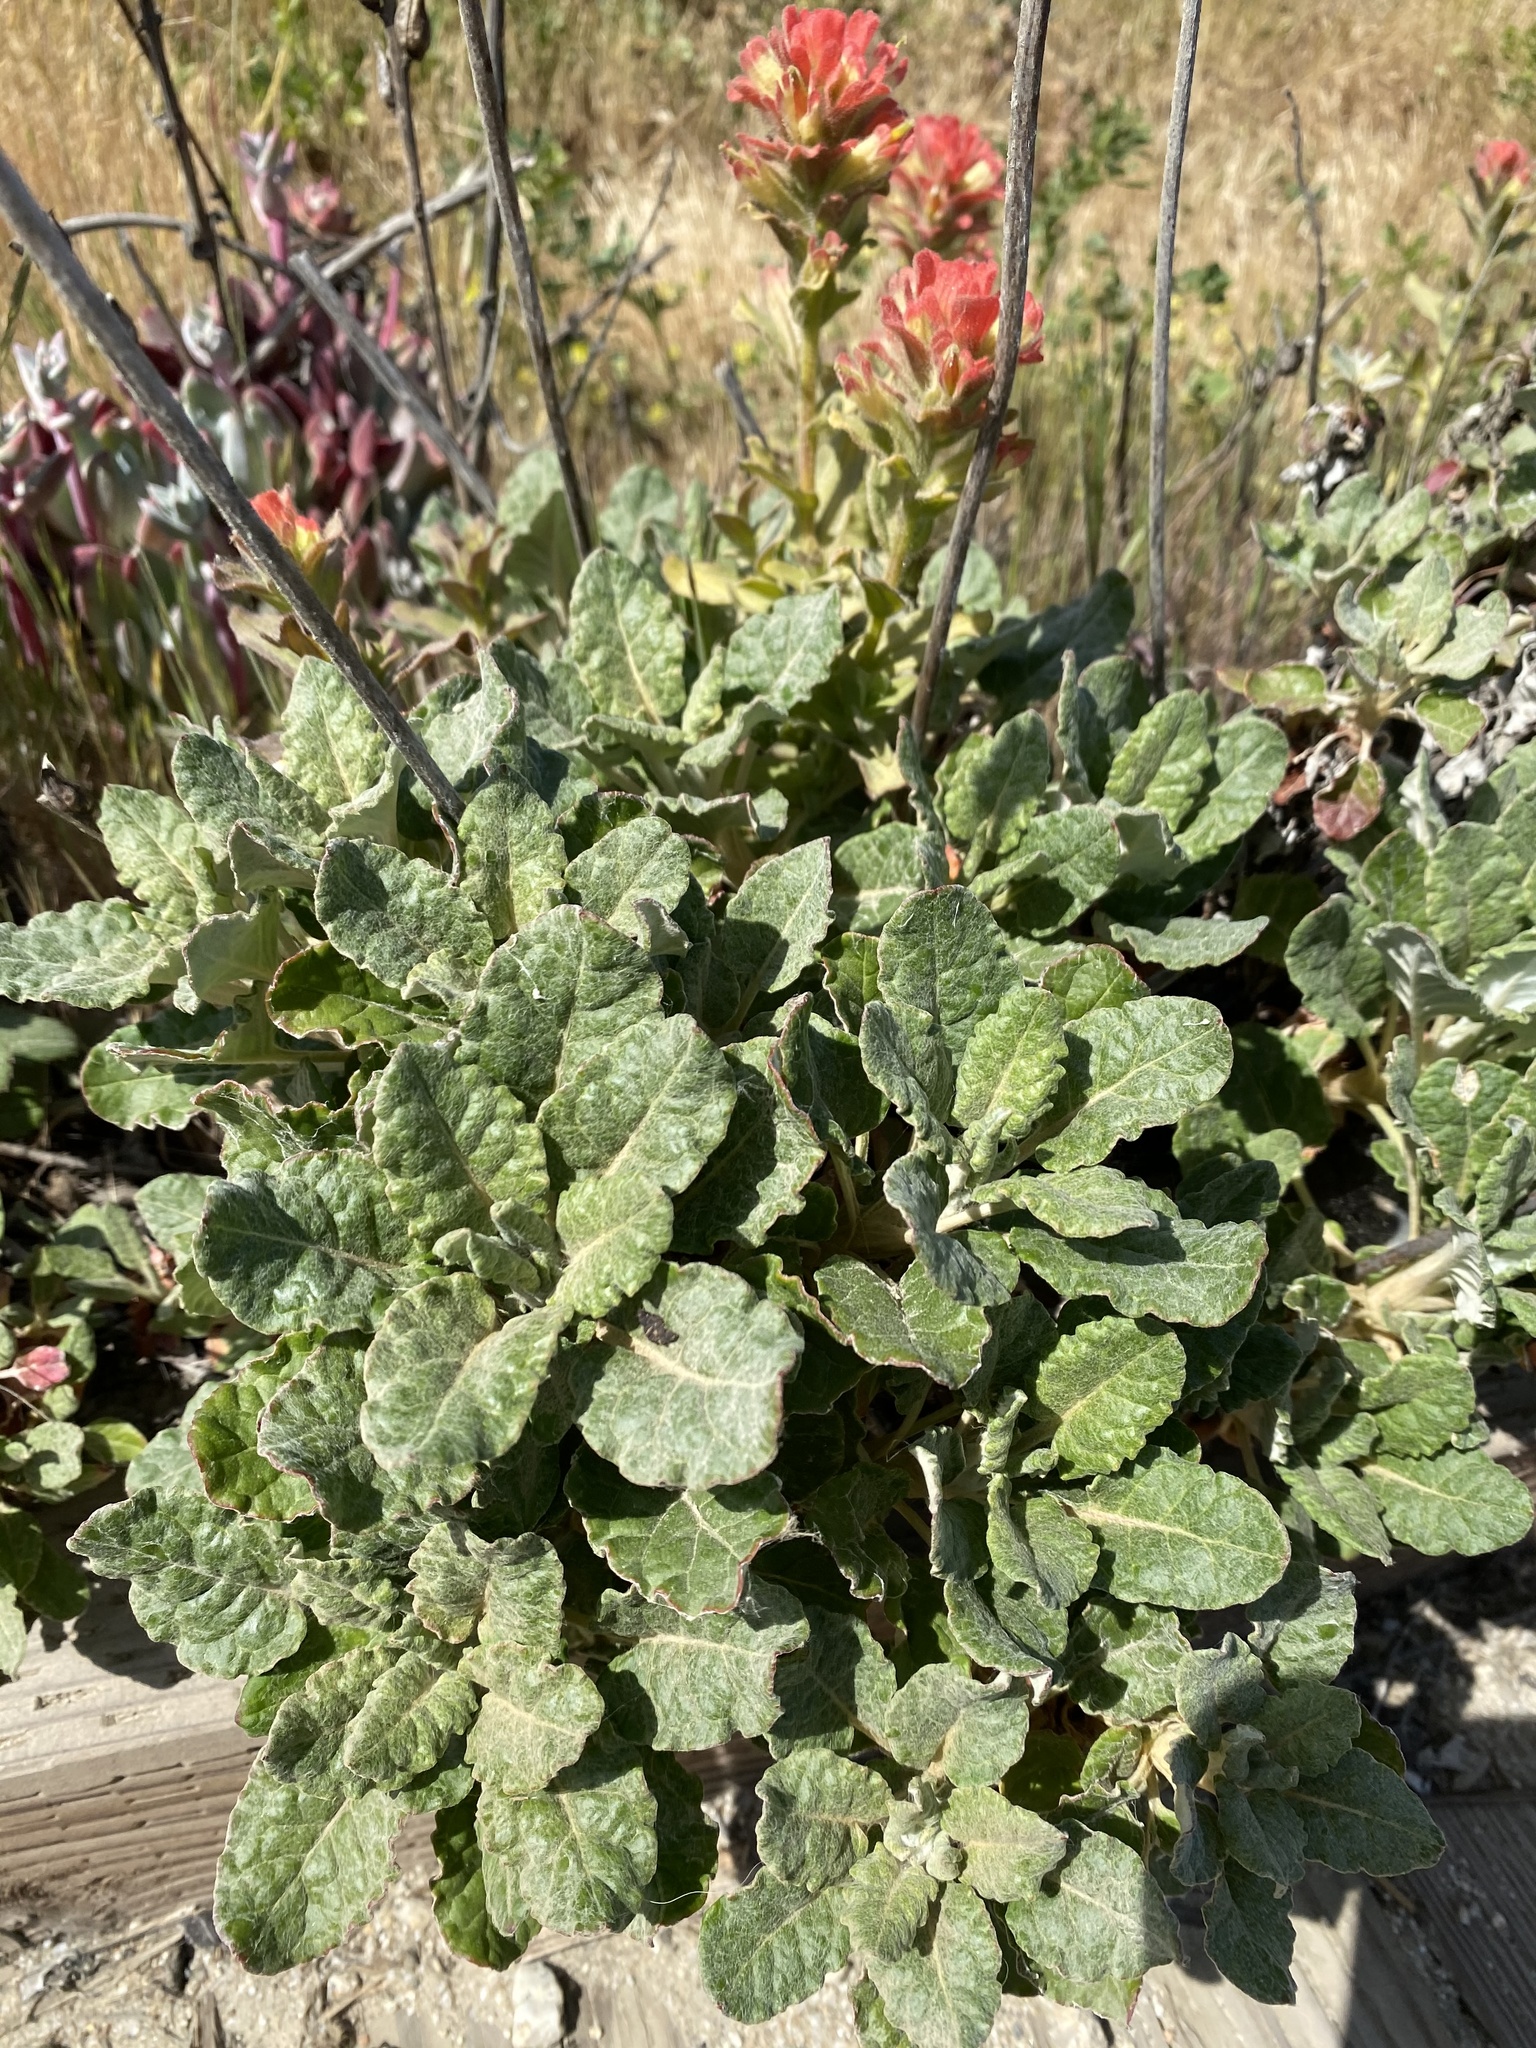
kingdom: Plantae
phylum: Tracheophyta
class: Magnoliopsida
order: Caryophyllales
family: Polygonaceae
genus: Eriogonum
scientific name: Eriogonum latifolium
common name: Seaside wild buckwheat
